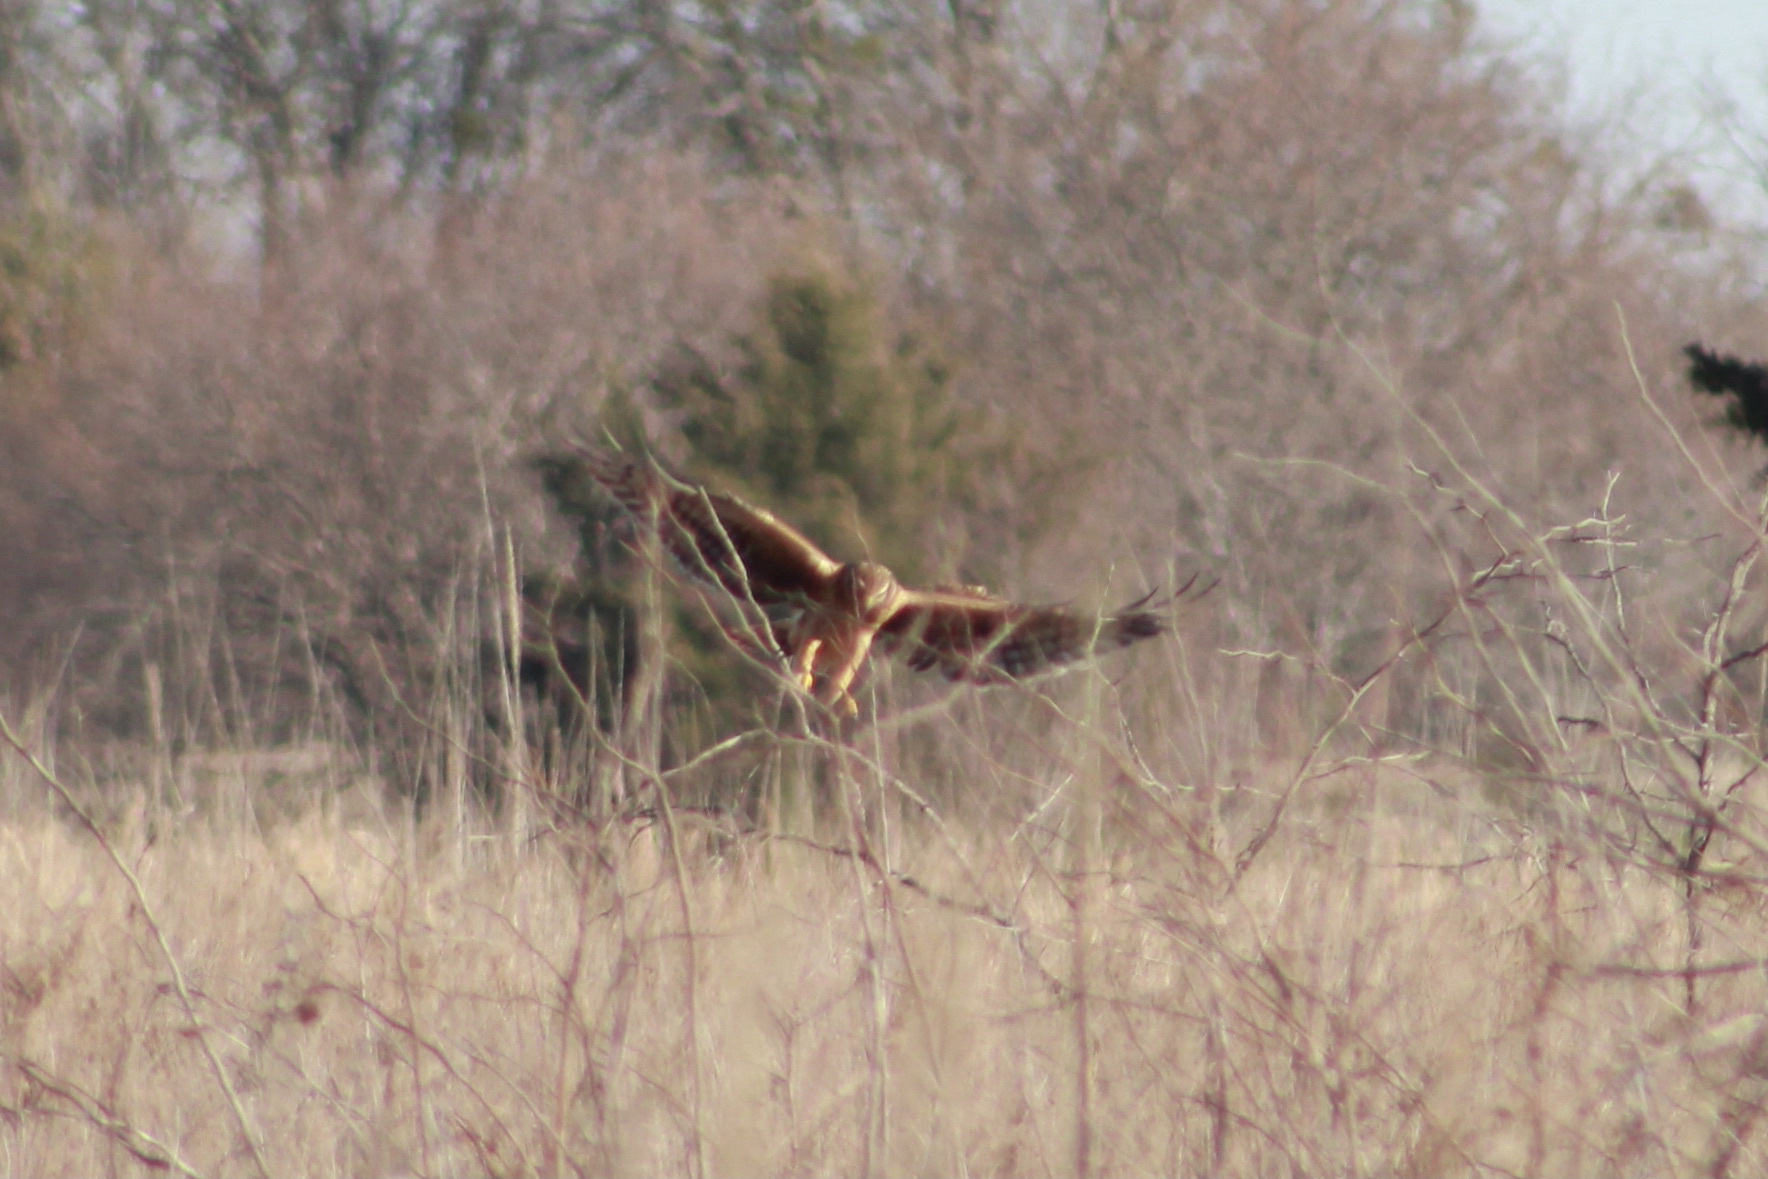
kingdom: Animalia
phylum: Chordata
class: Aves
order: Accipitriformes
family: Accipitridae
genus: Circus
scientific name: Circus cyaneus
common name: Hen harrier
